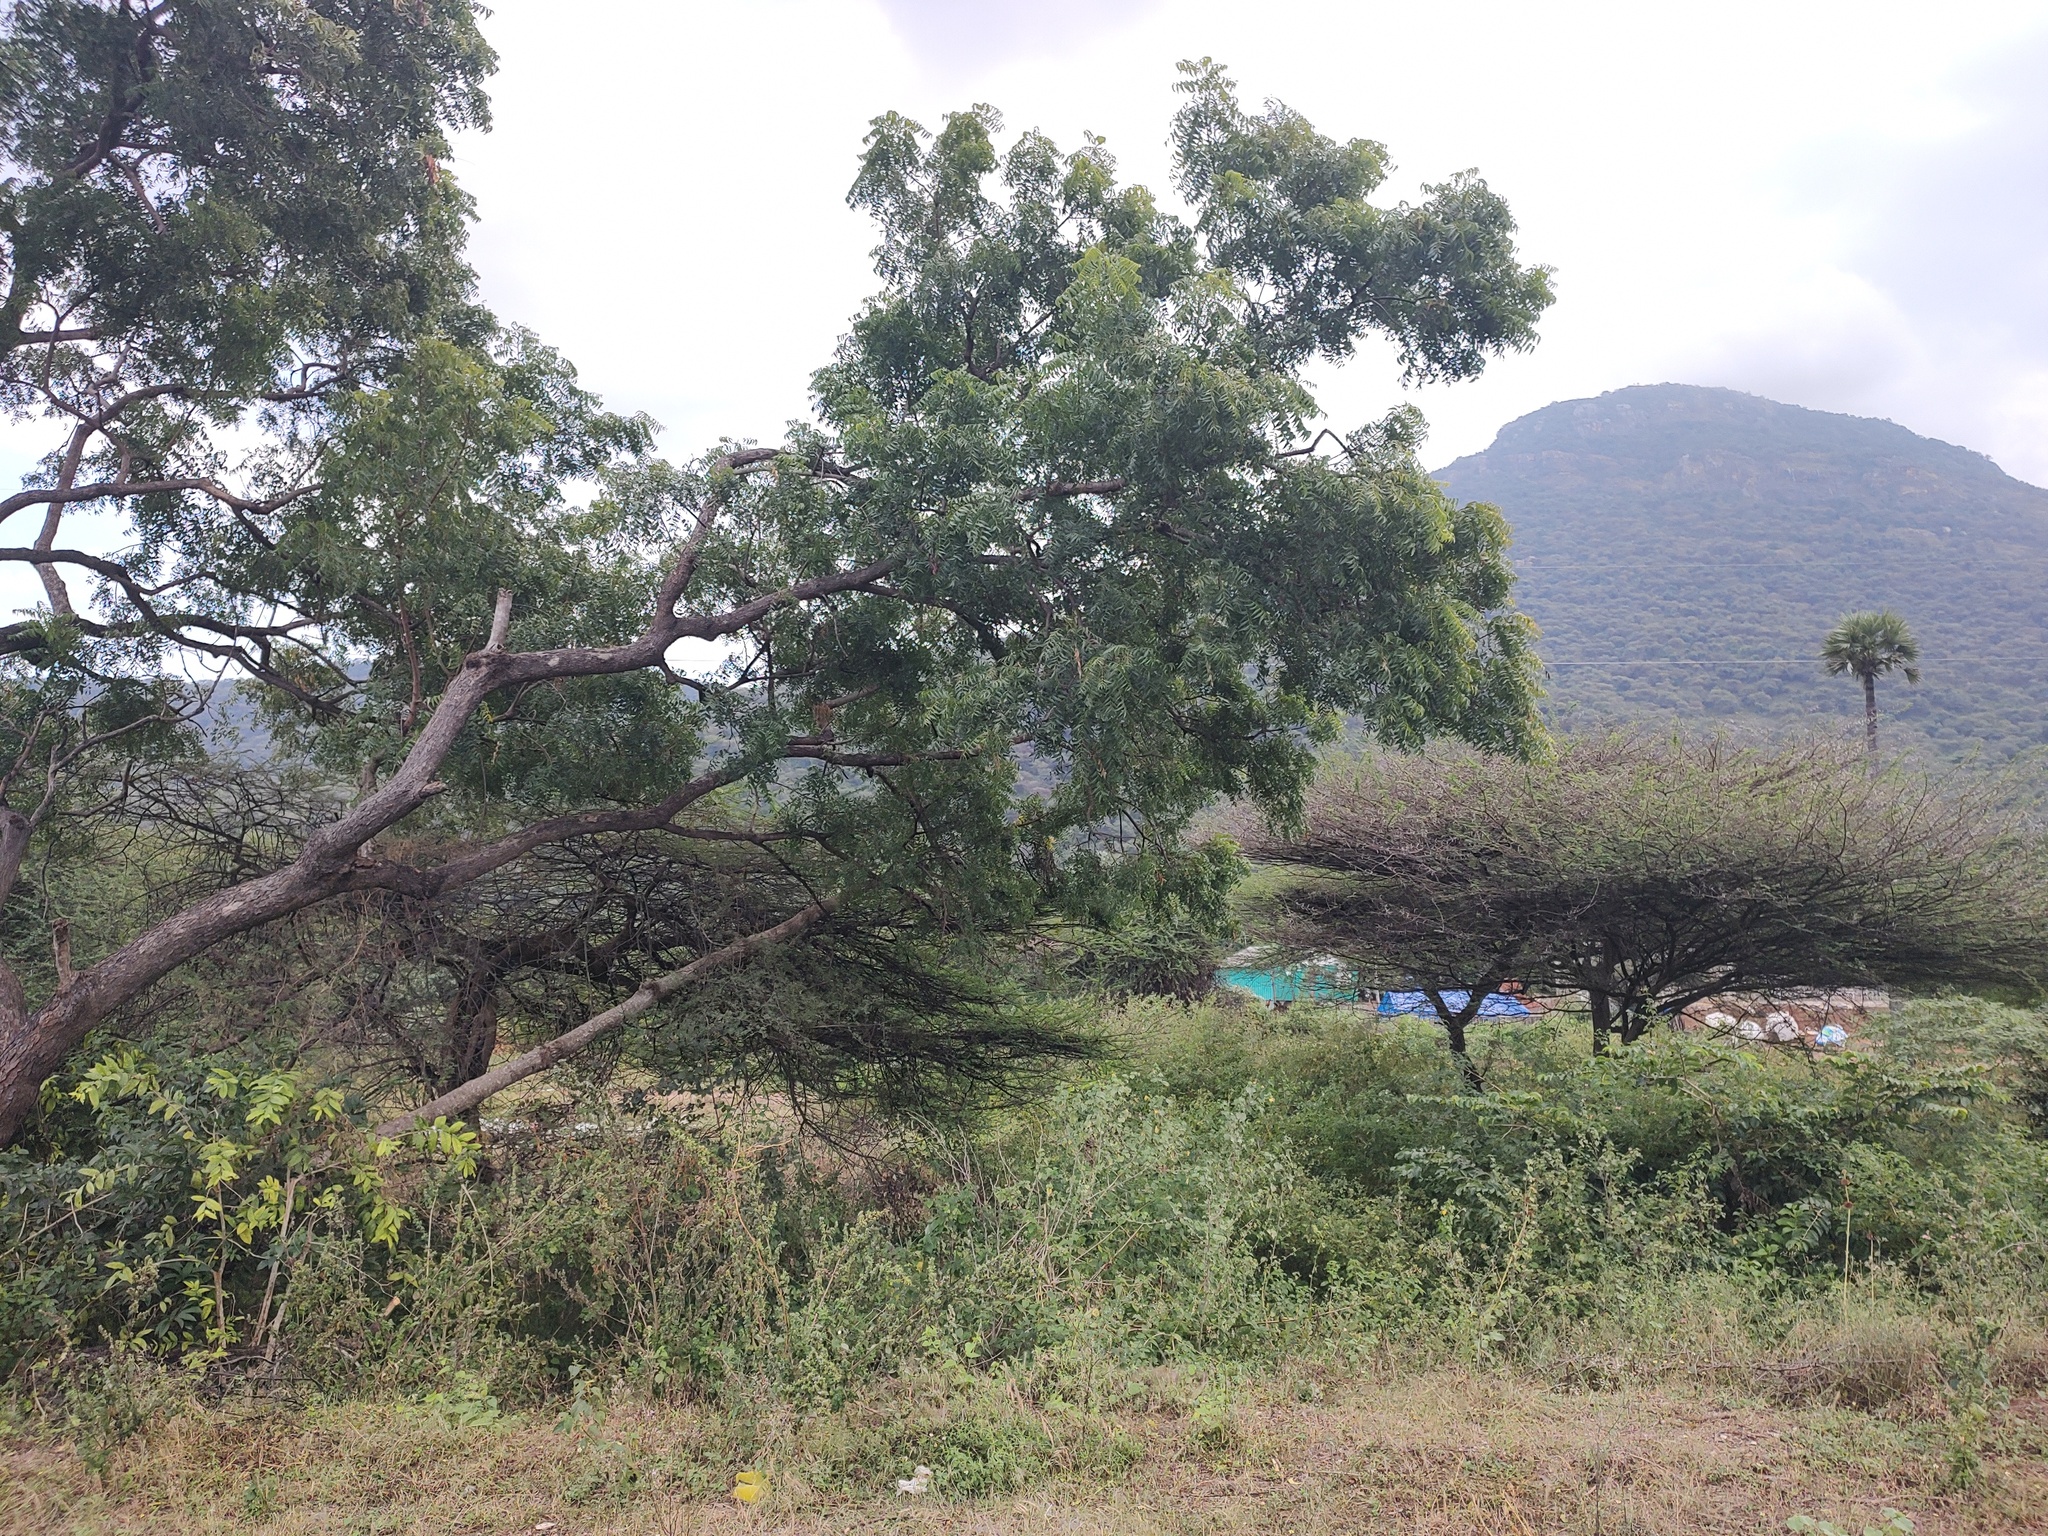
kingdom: Plantae
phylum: Tracheophyta
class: Magnoliopsida
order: Sapindales
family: Meliaceae
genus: Azadirachta
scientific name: Azadirachta indica
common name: Neem
